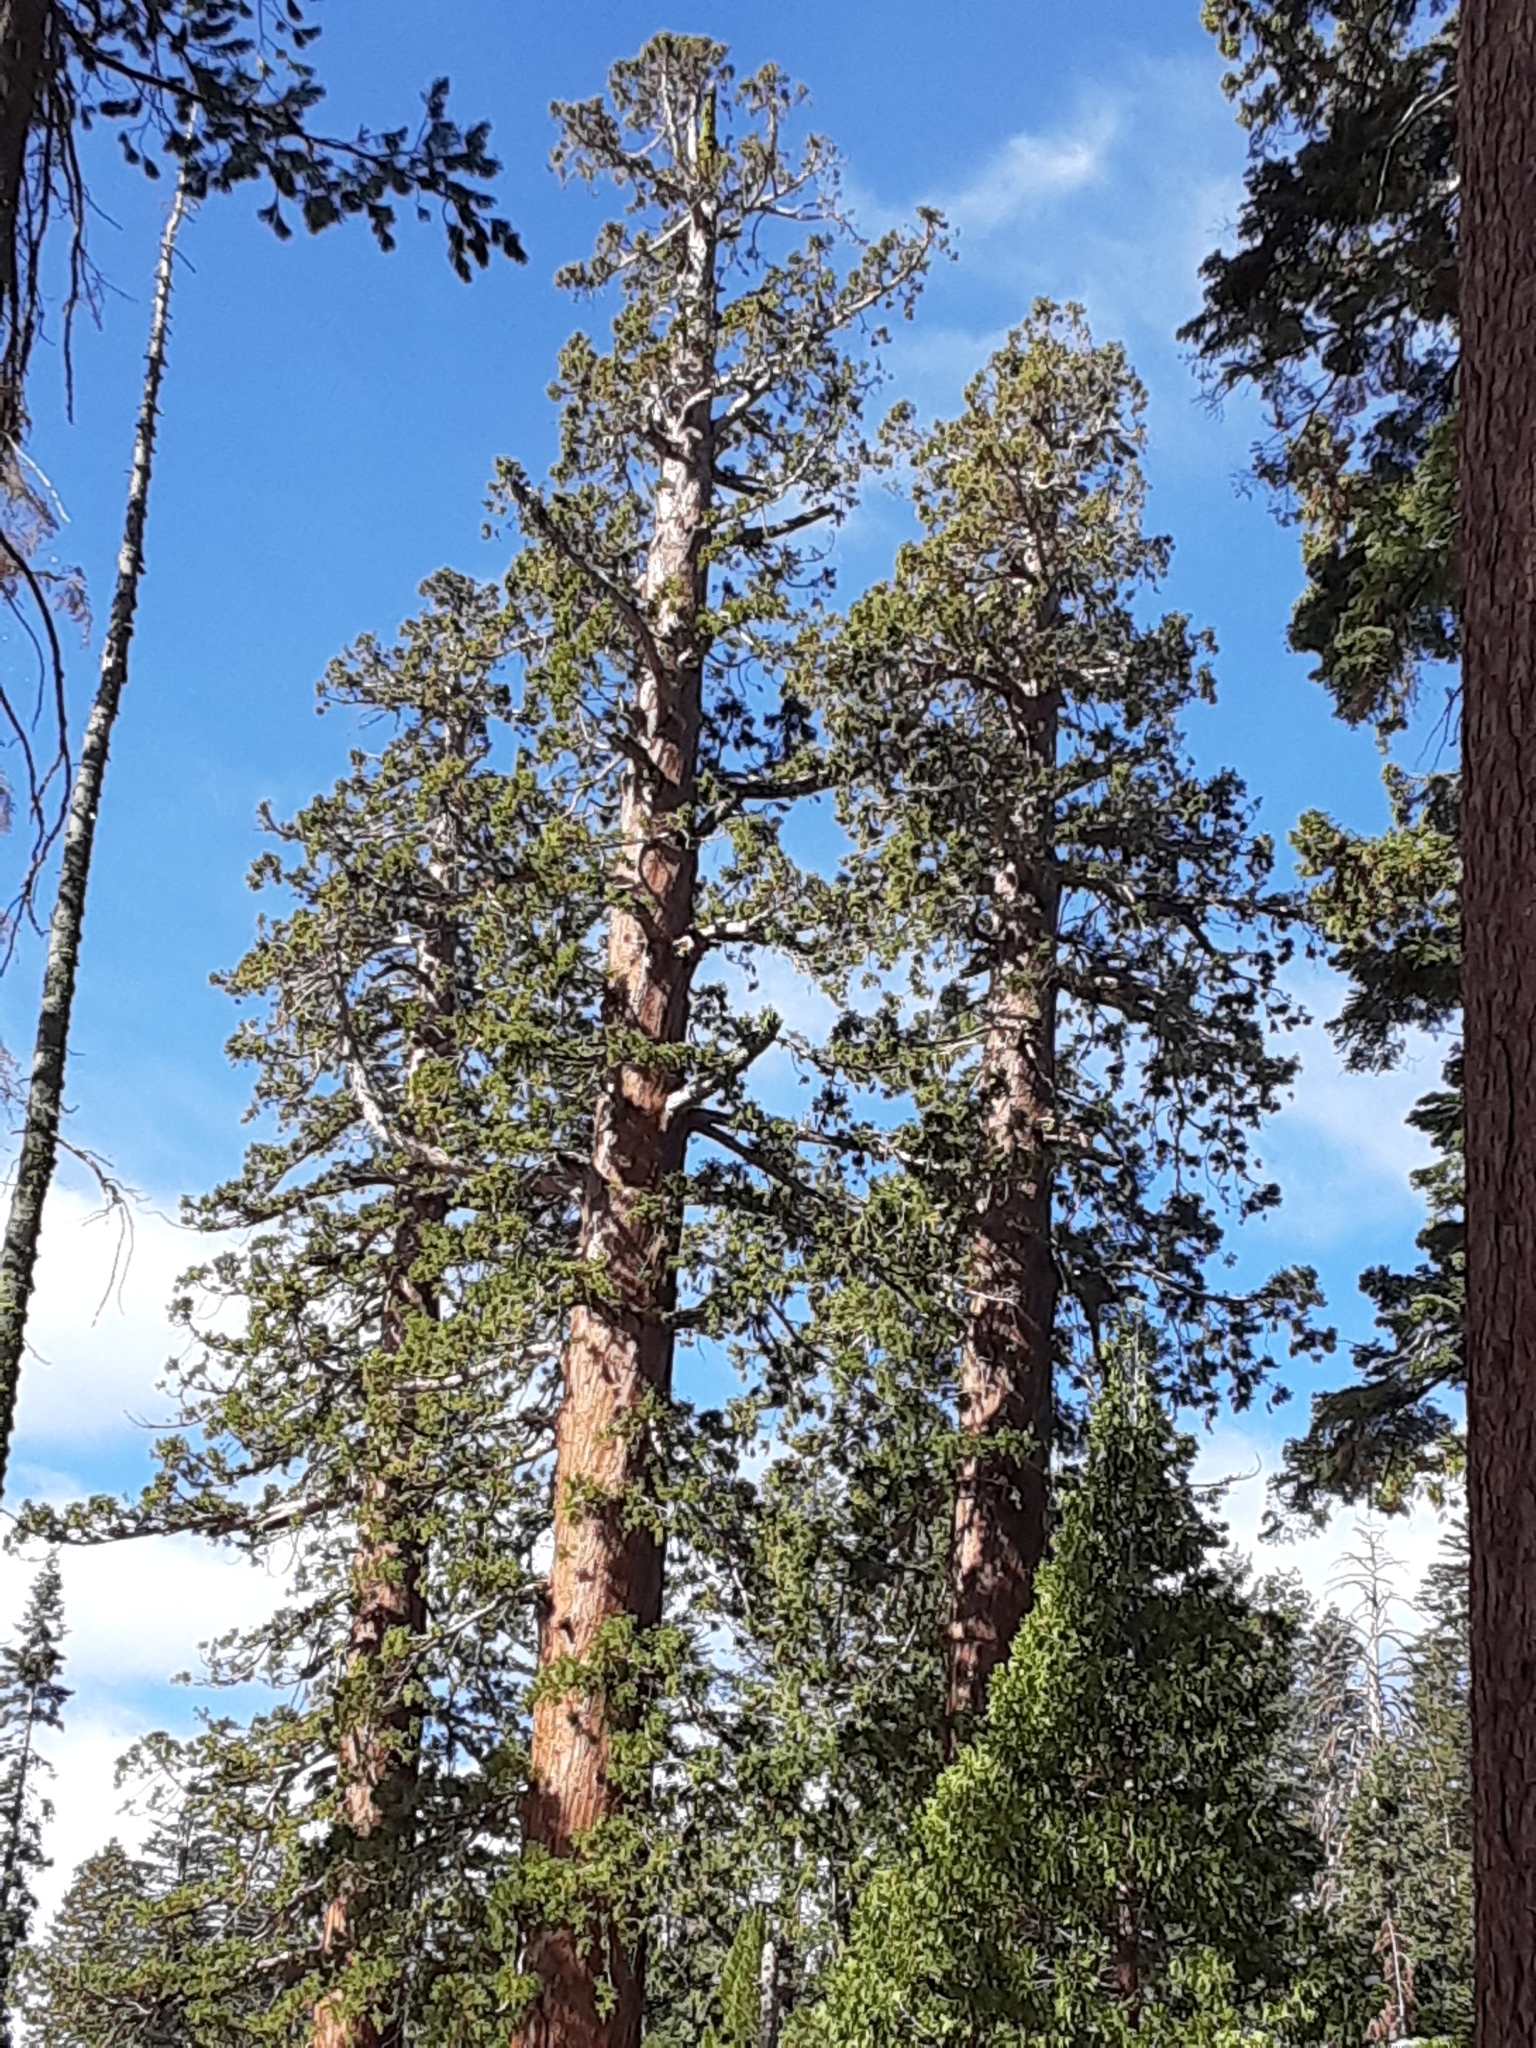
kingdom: Plantae
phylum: Tracheophyta
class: Pinopsida
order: Pinales
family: Cupressaceae
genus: Sequoiadendron
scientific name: Sequoiadendron giganteum
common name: Wellingtonia
